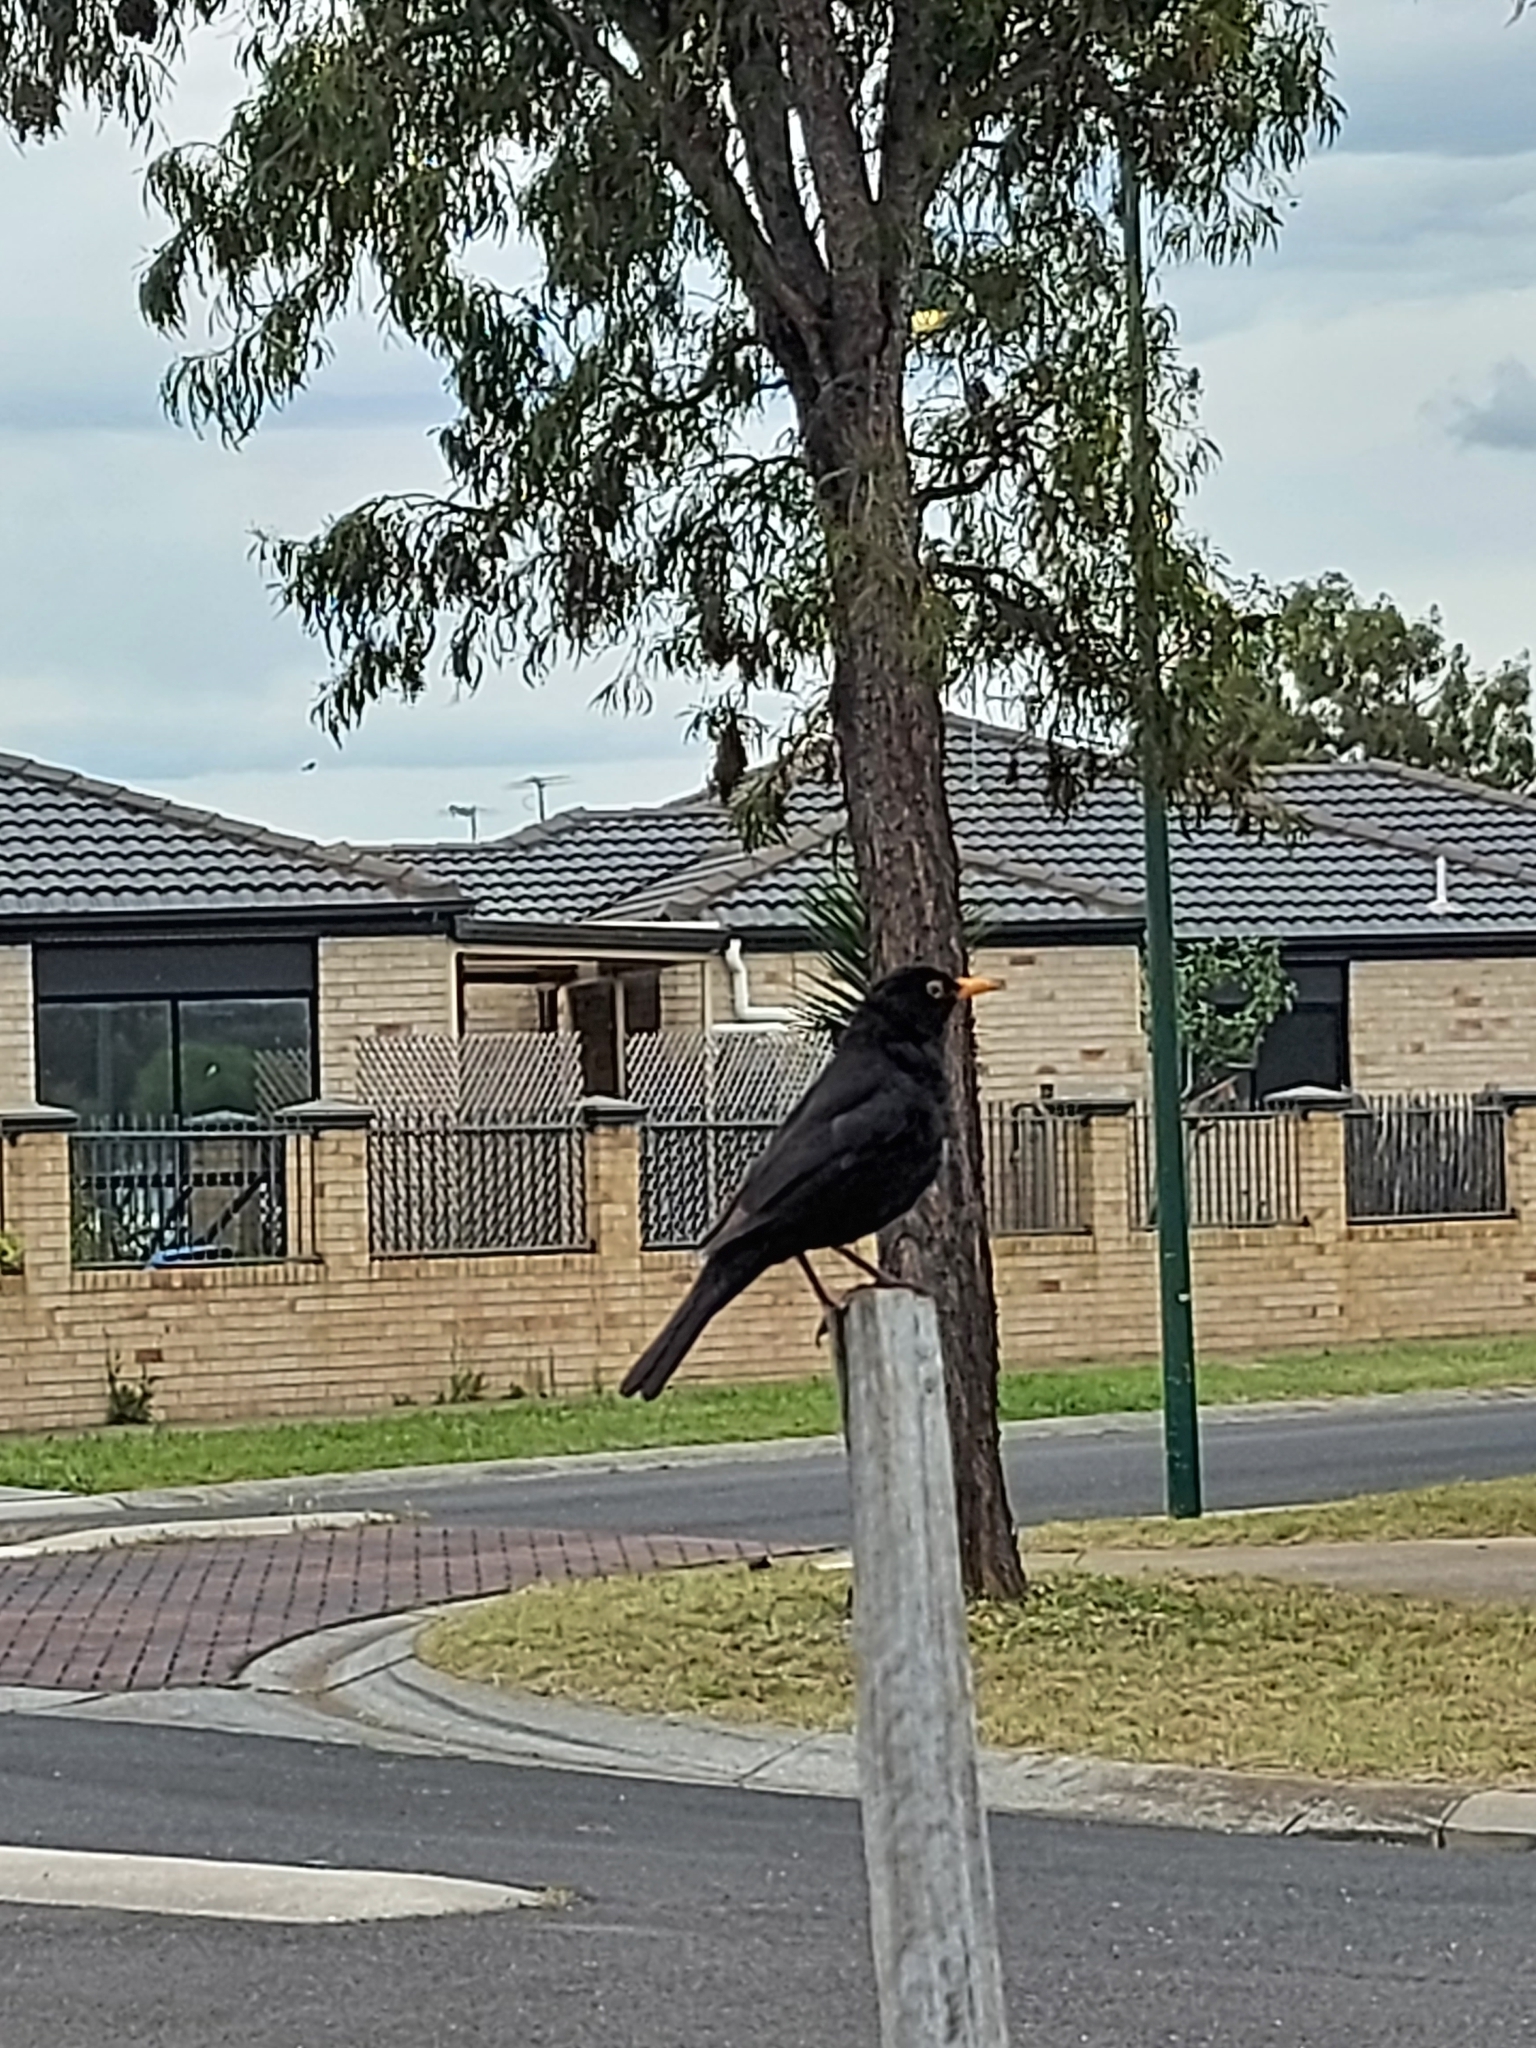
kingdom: Animalia
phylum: Chordata
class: Aves
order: Passeriformes
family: Turdidae
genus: Turdus
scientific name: Turdus merula
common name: Common blackbird
